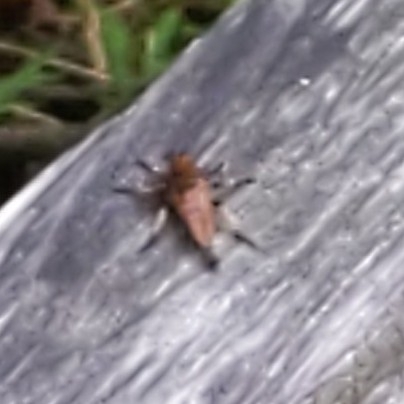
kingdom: Animalia
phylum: Arthropoda
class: Insecta
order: Diptera
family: Asilidae
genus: Promachus
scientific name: Promachus rufipes
